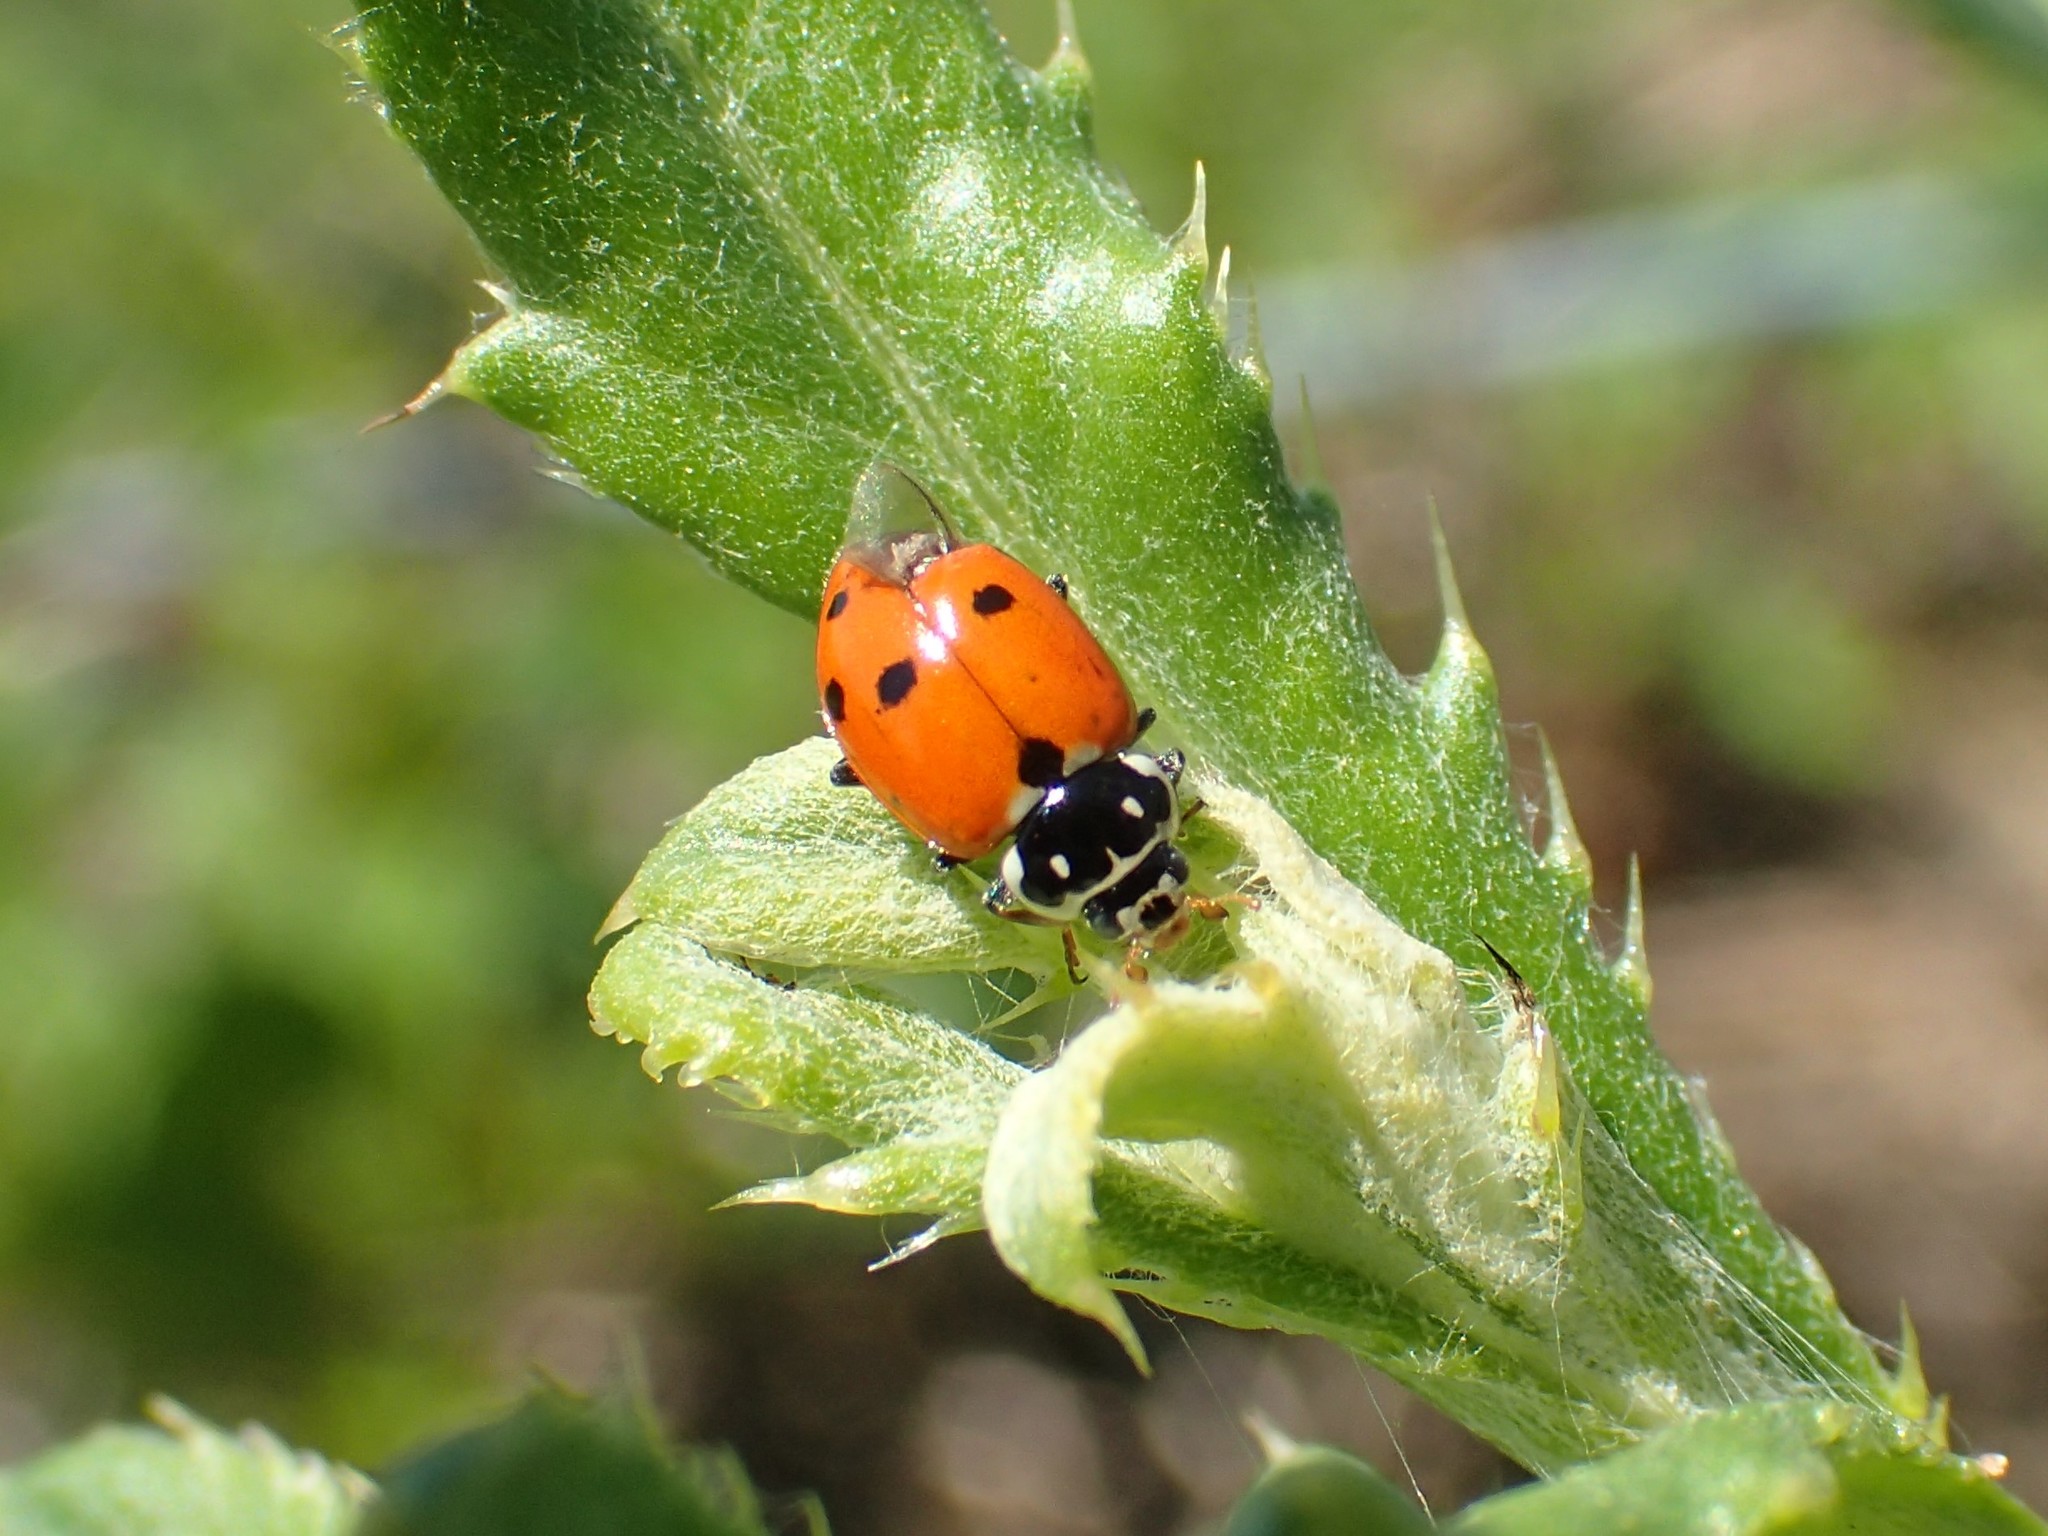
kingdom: Animalia
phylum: Arthropoda
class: Insecta
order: Coleoptera
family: Coccinellidae
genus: Hippodamia
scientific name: Hippodamia variegata
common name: Ladybird beetle
